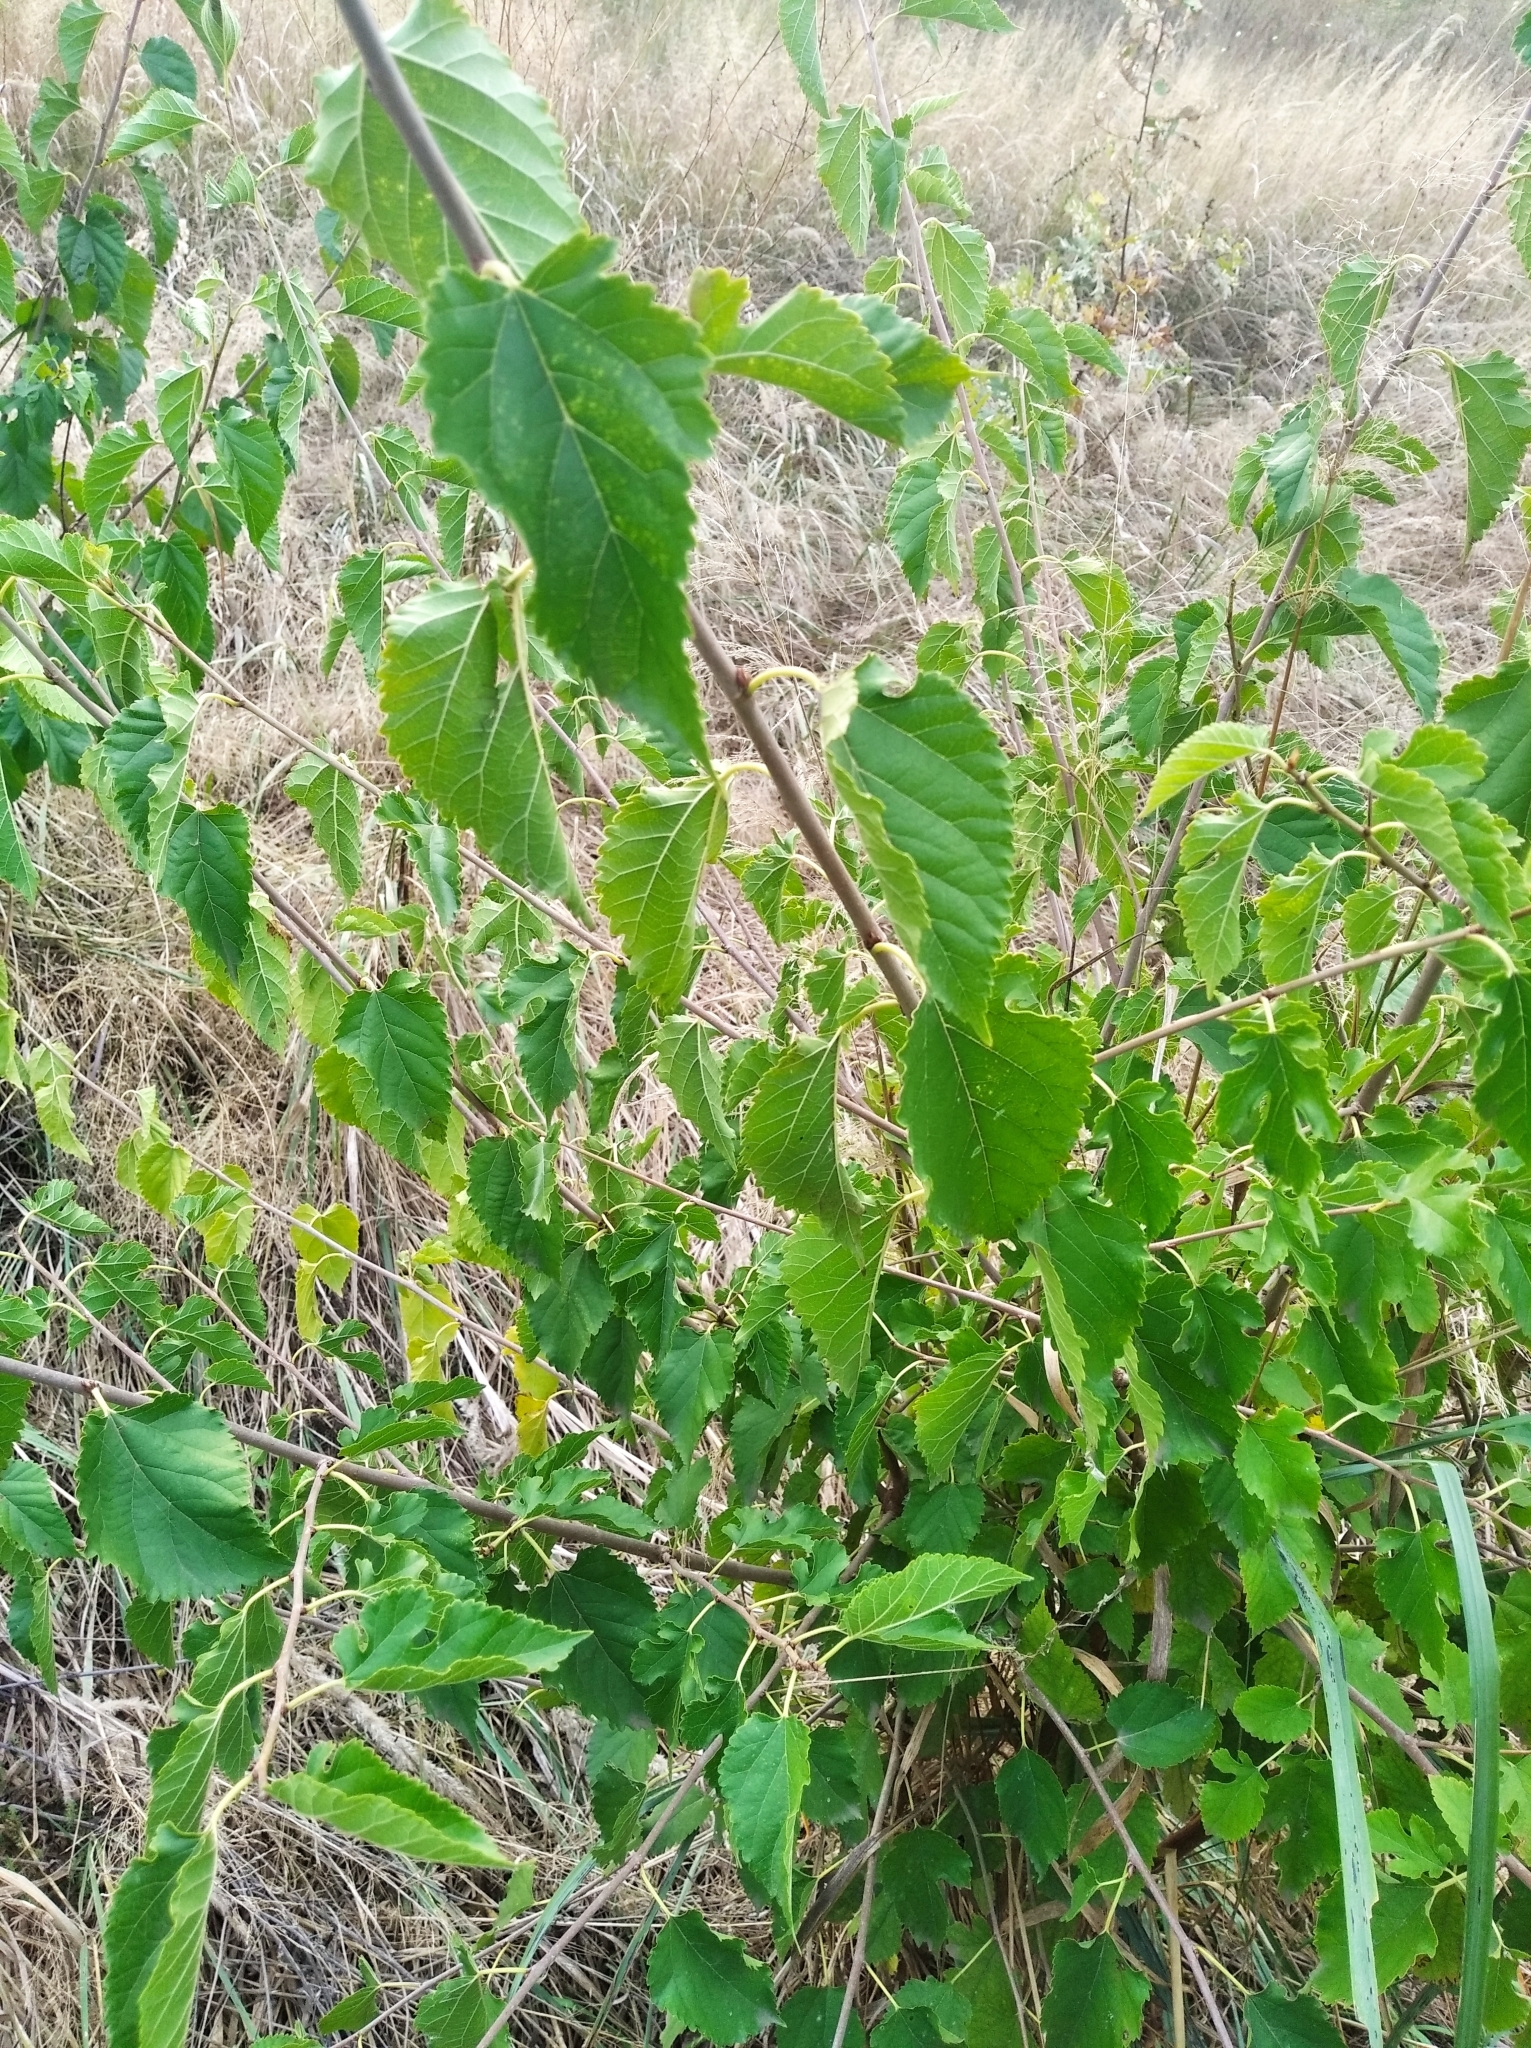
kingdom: Plantae
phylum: Tracheophyta
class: Magnoliopsida
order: Rosales
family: Moraceae
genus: Morus
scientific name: Morus alba
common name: White mulberry
